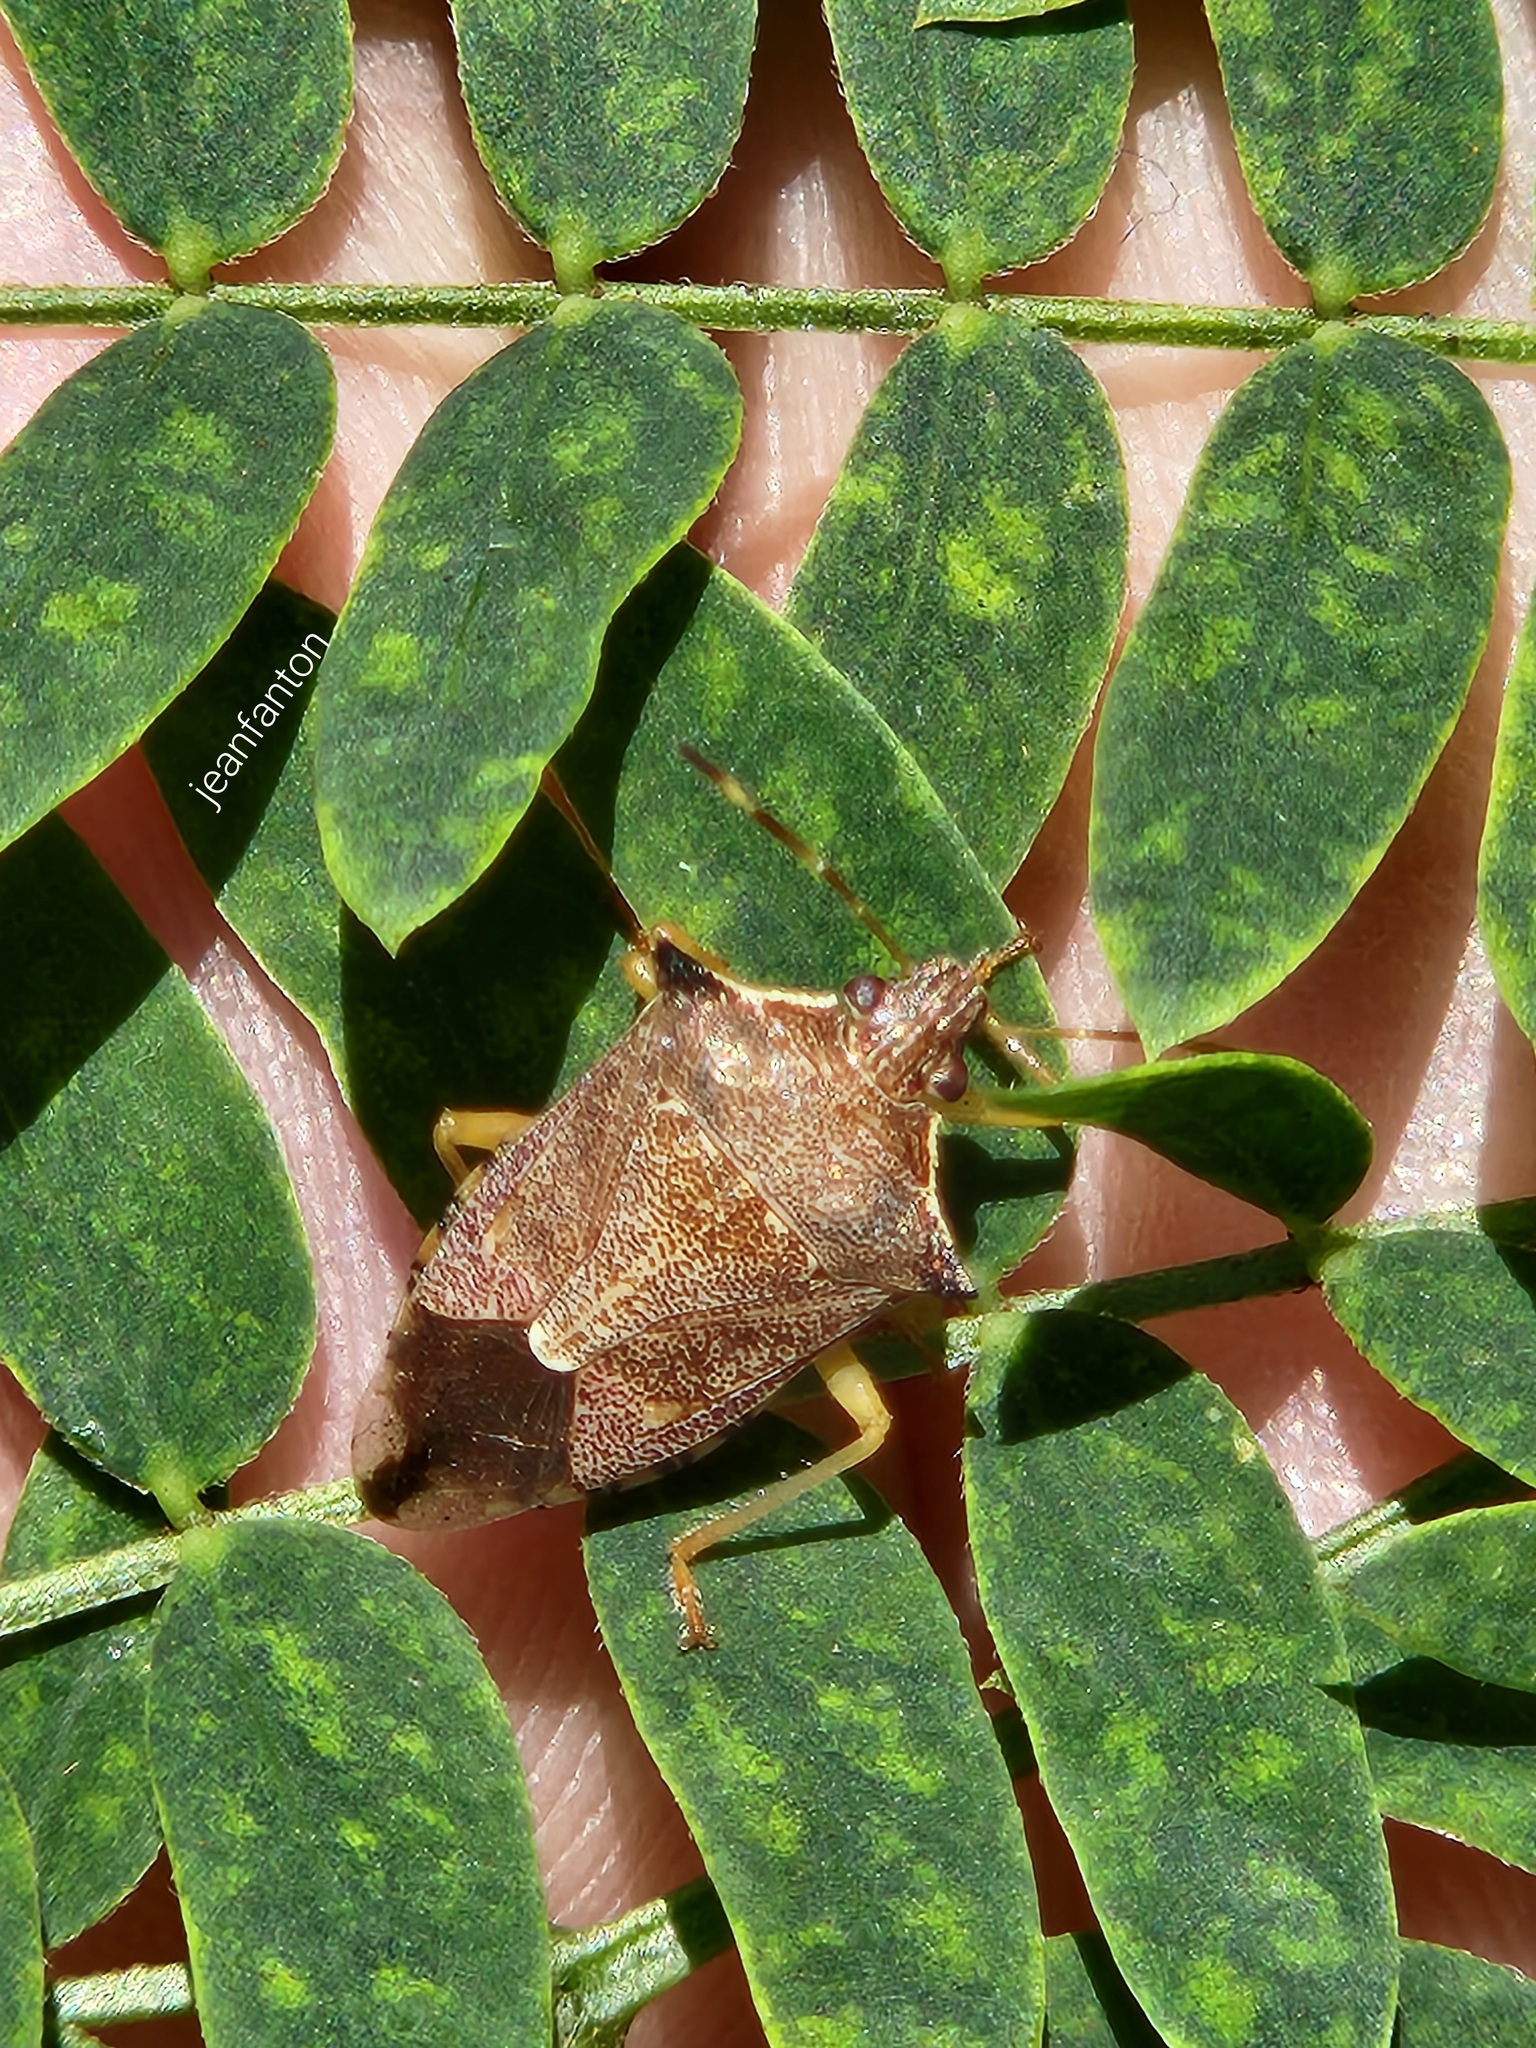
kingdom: Animalia
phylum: Arthropoda
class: Insecta
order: Hemiptera
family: Pentatomidae
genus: Podisus
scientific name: Podisus nigrispinus
